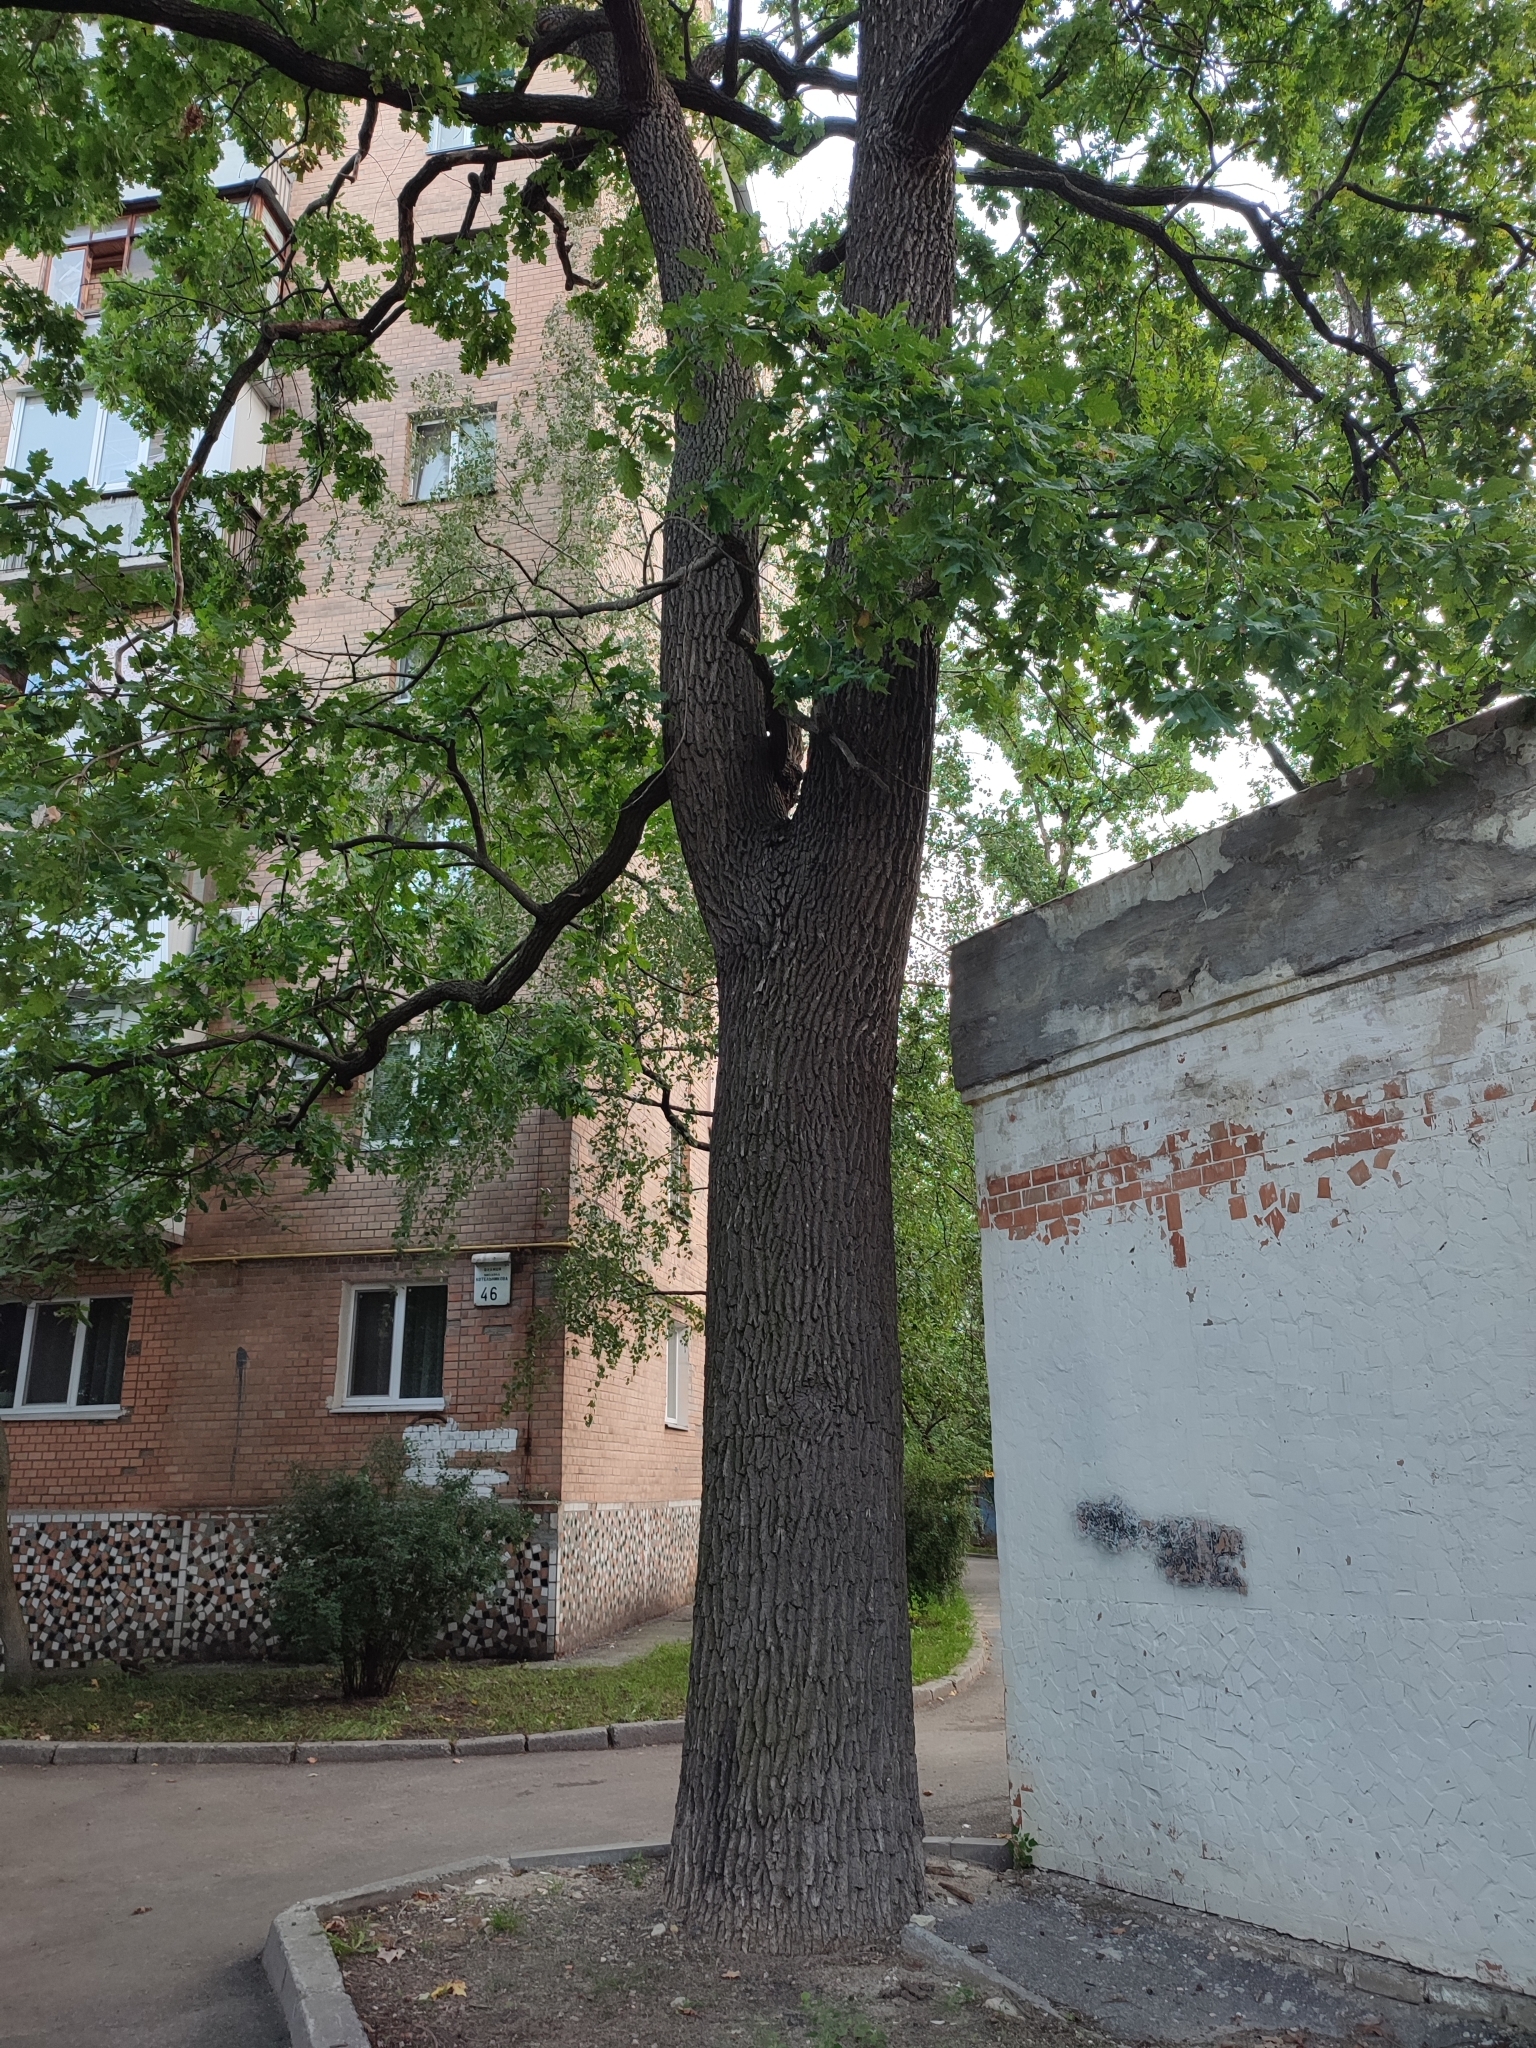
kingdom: Plantae
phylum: Tracheophyta
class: Magnoliopsida
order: Fagales
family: Fagaceae
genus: Quercus
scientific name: Quercus robur
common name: Pedunculate oak
